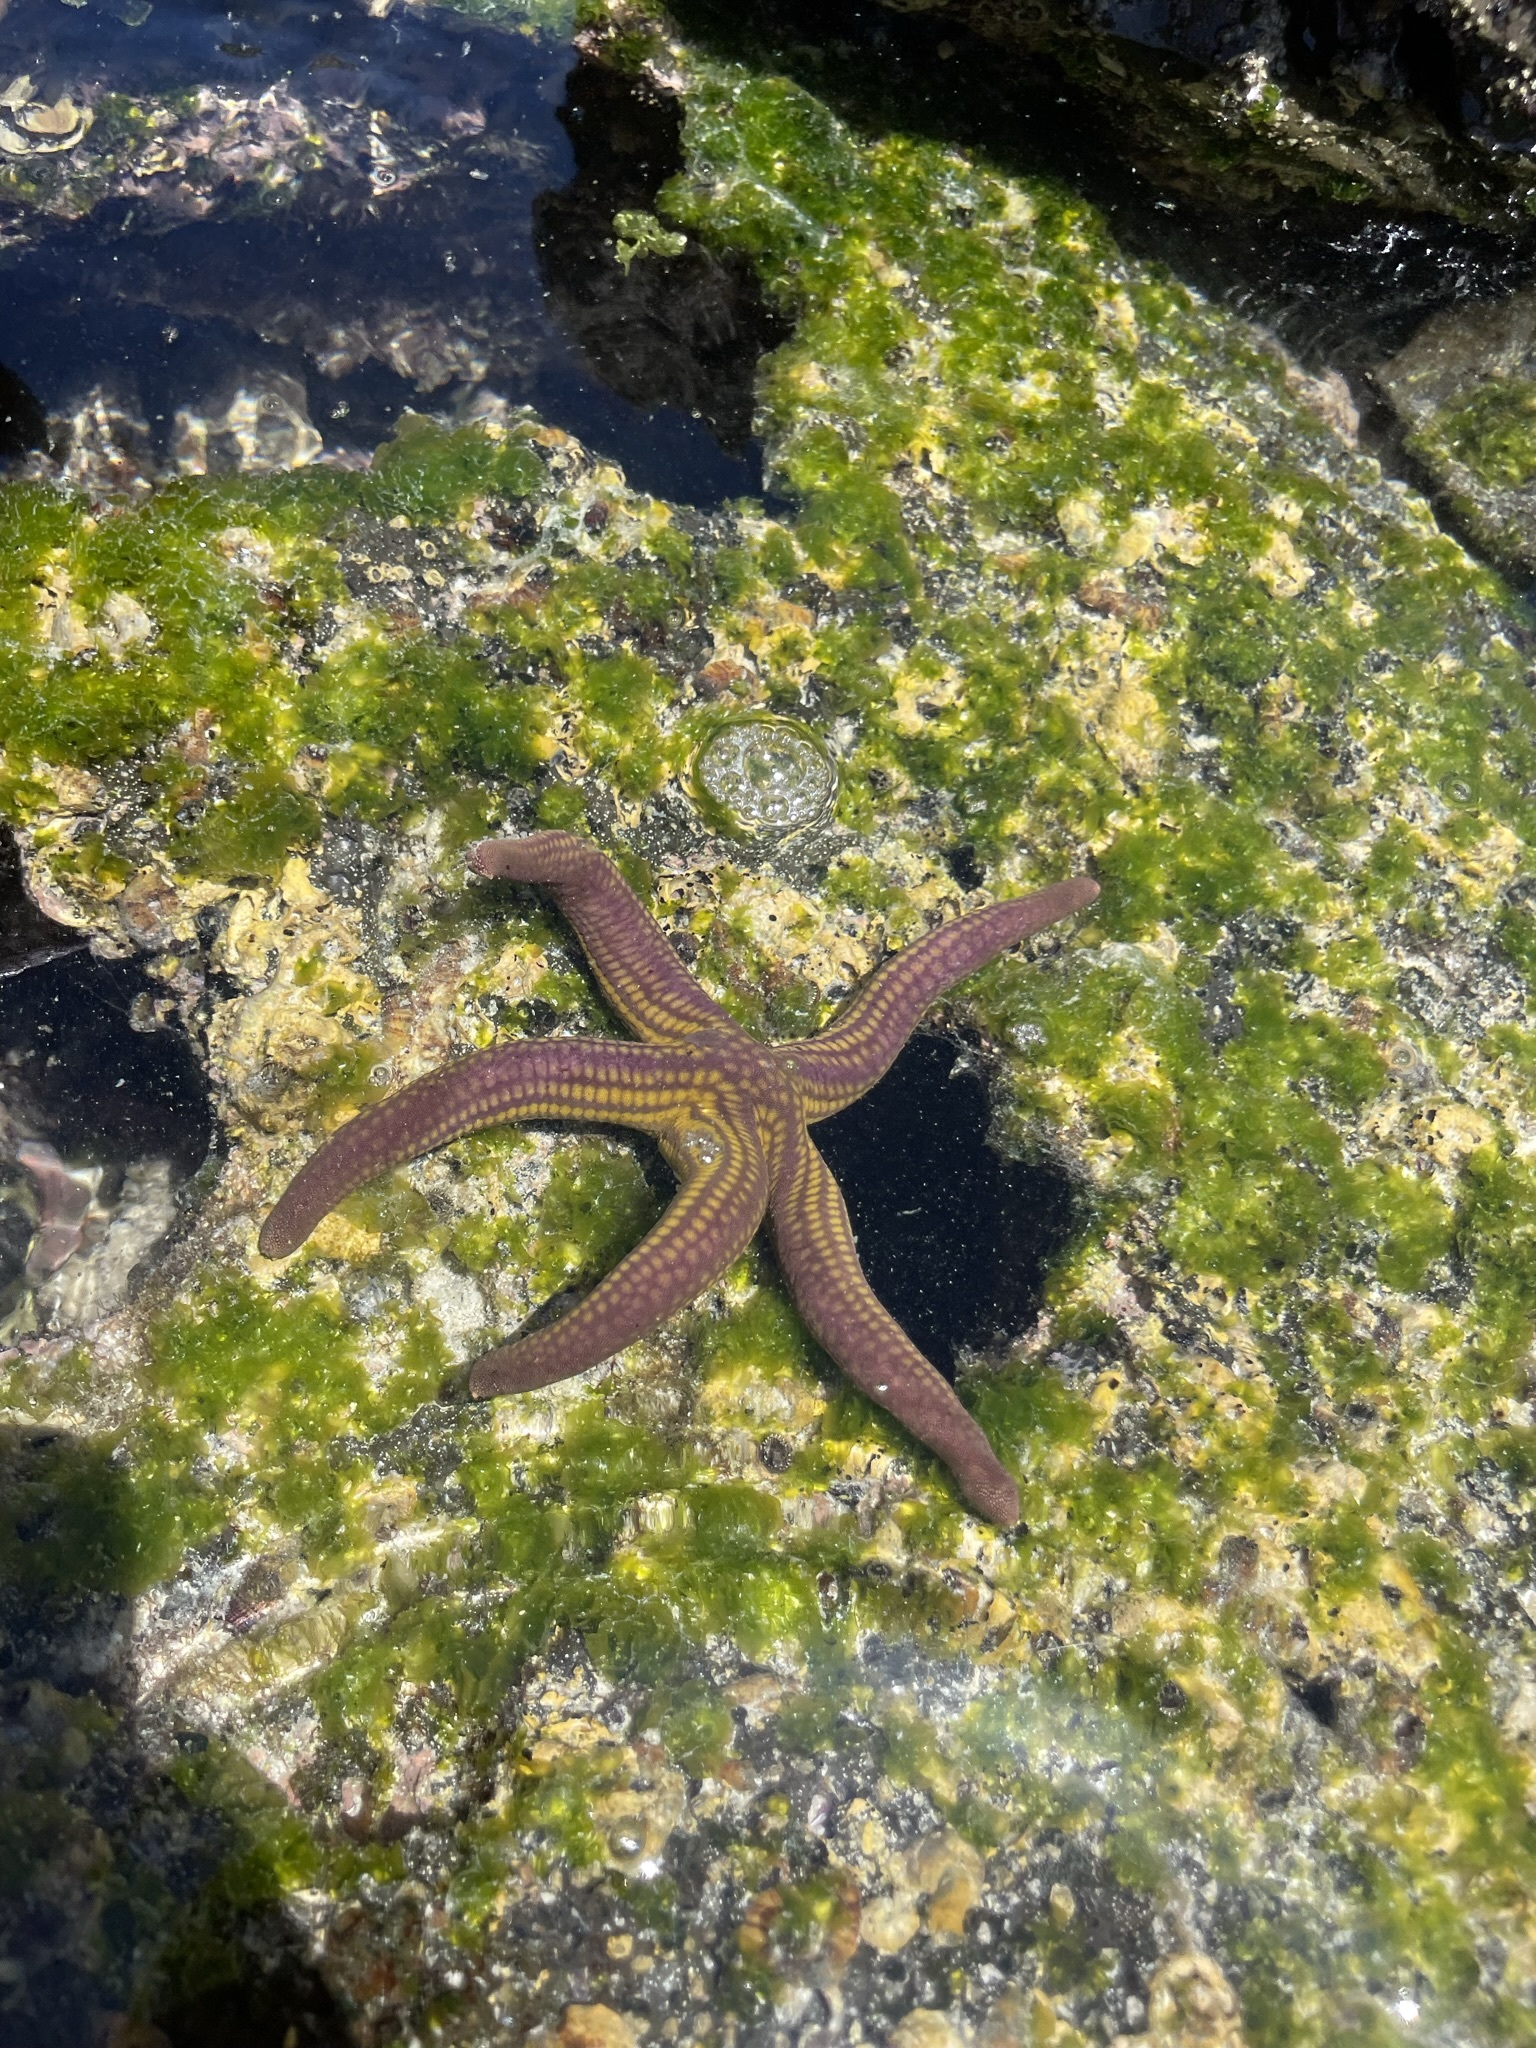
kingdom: Animalia
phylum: Echinodermata
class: Asteroidea
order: Valvatida
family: Ophidiasteridae
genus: Pharia
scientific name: Pharia pyramidata
